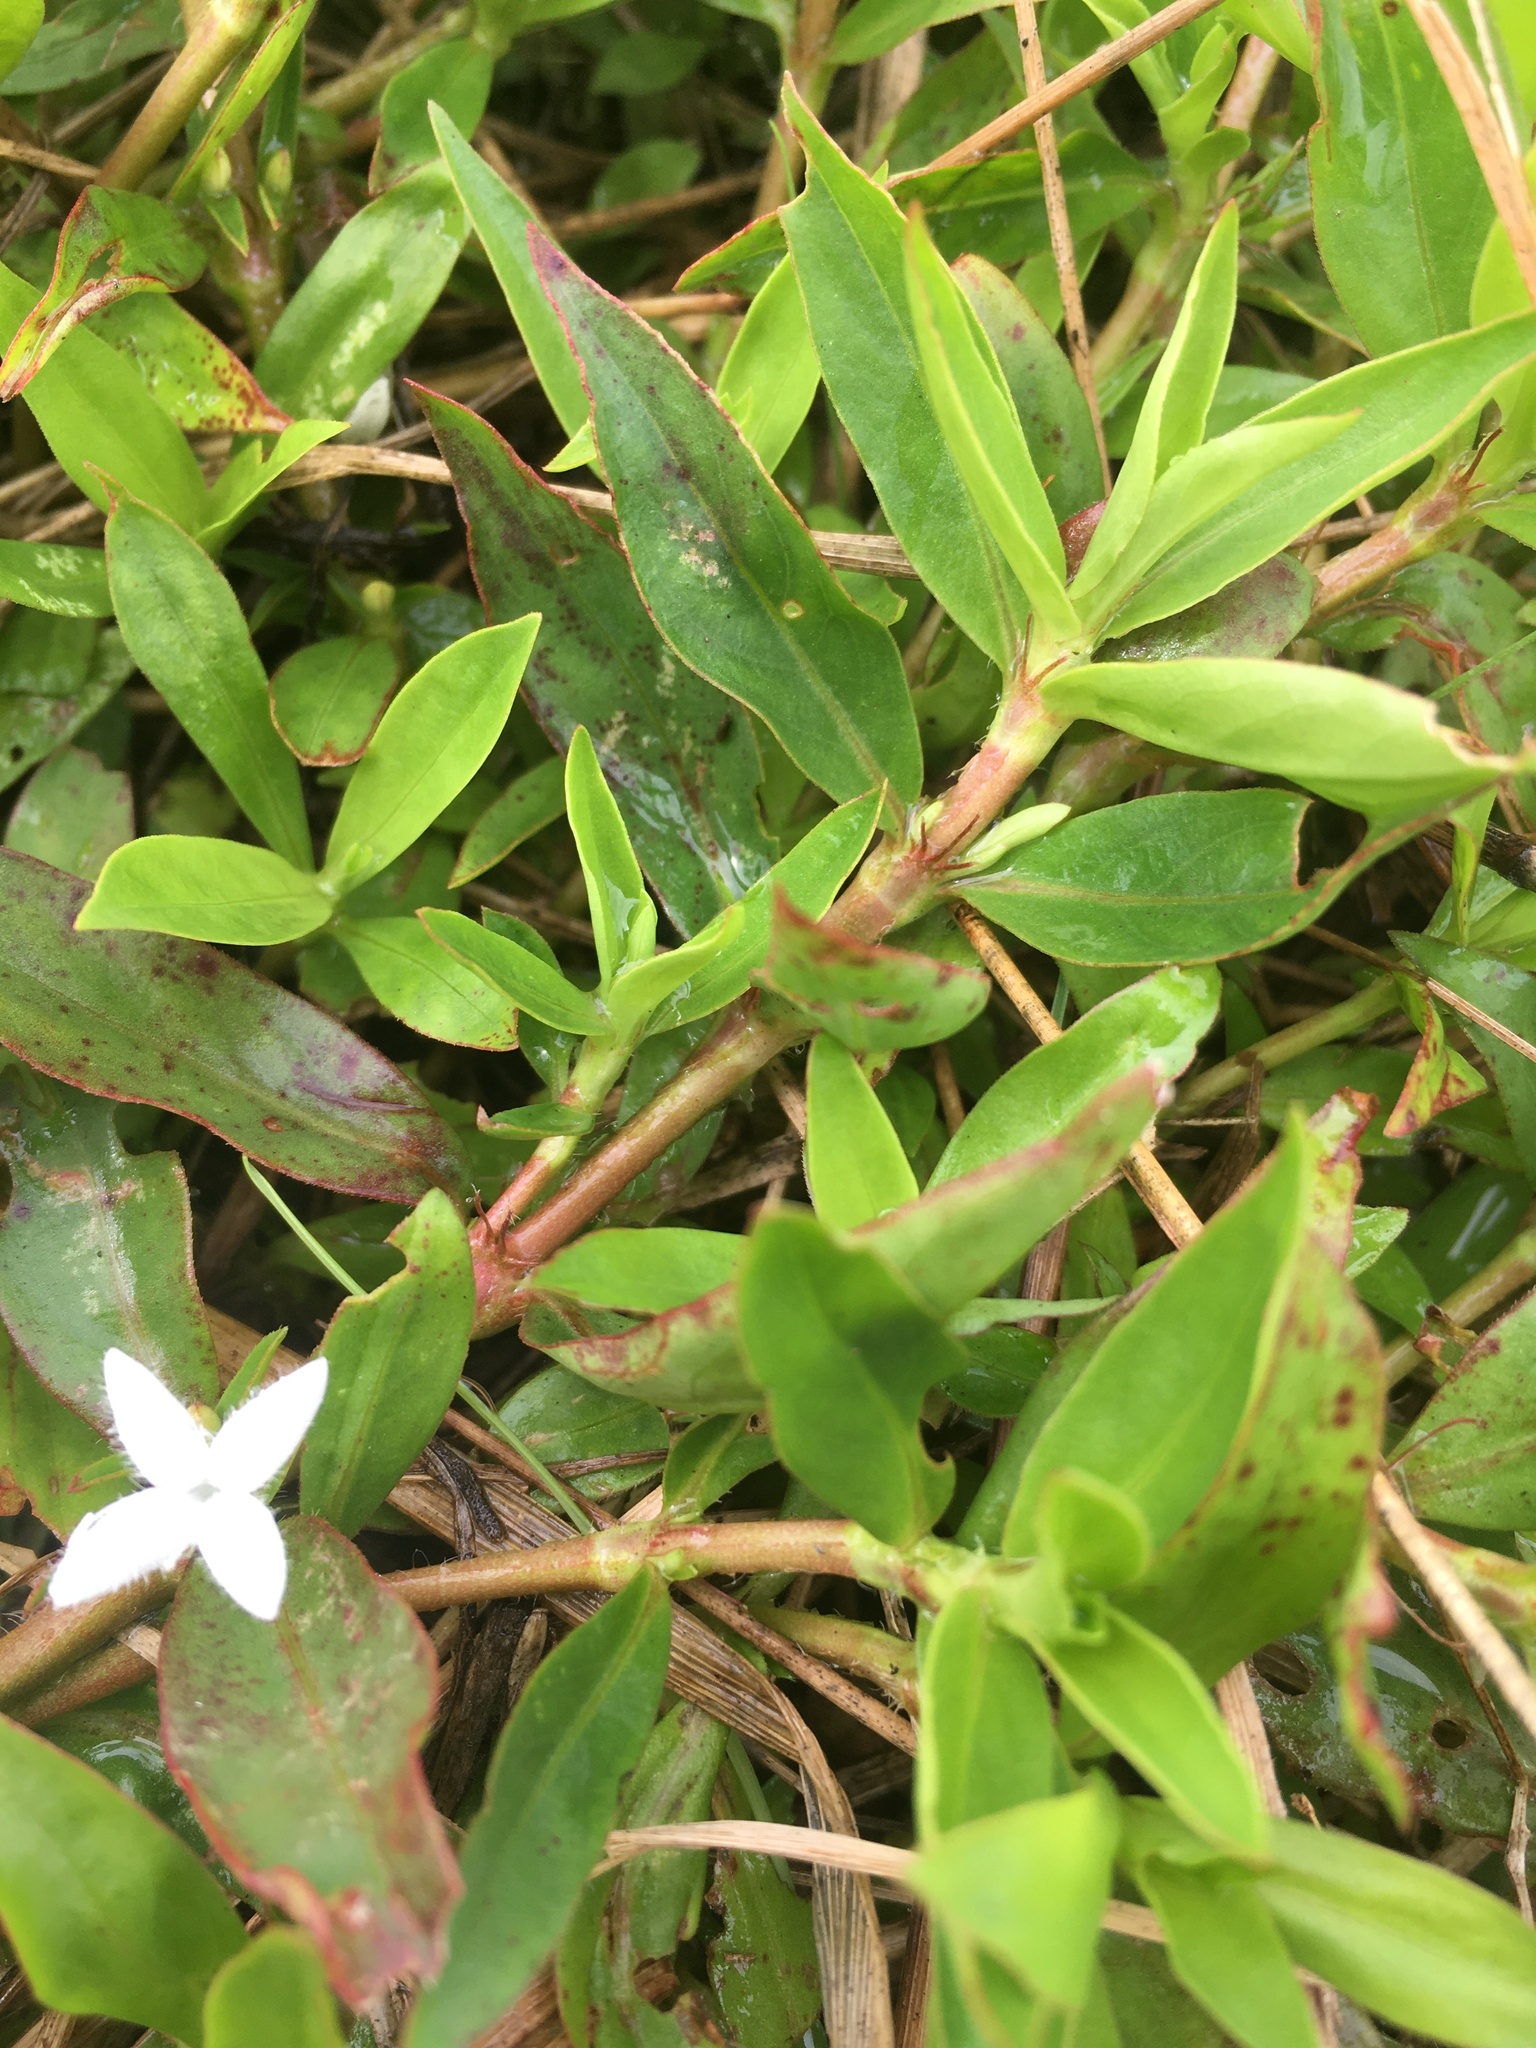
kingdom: Plantae
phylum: Tracheophyta
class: Magnoliopsida
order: Gentianales
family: Rubiaceae
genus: Diodia
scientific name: Diodia virginiana
